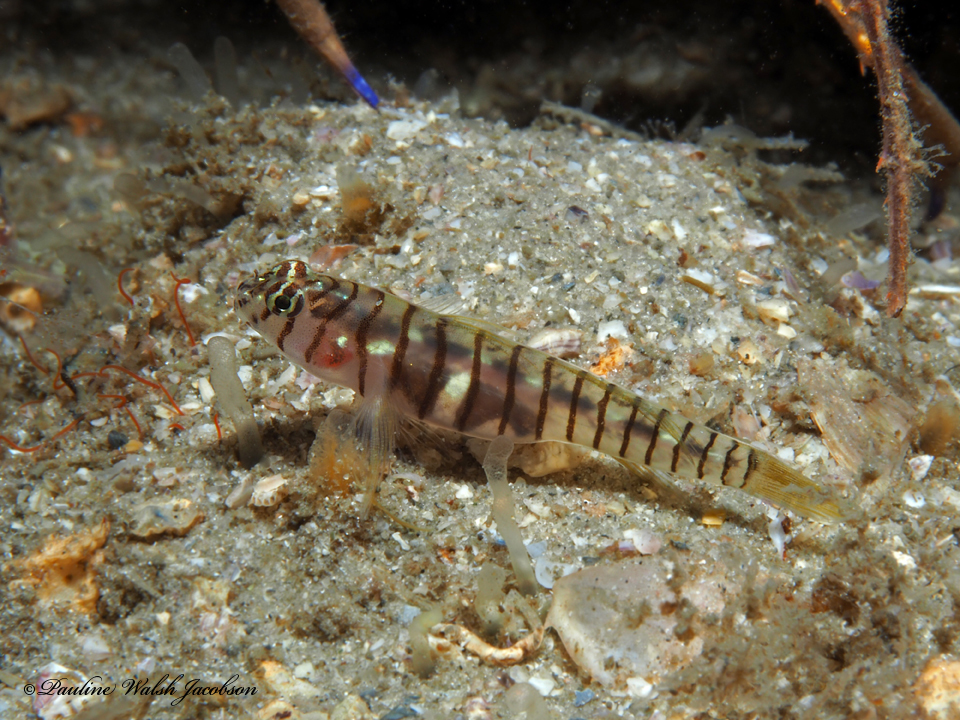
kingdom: Animalia
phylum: Chordata
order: Perciformes
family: Gobiidae
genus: Tigrigobius
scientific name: Tigrigobius macrodon
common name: Tiger goby
